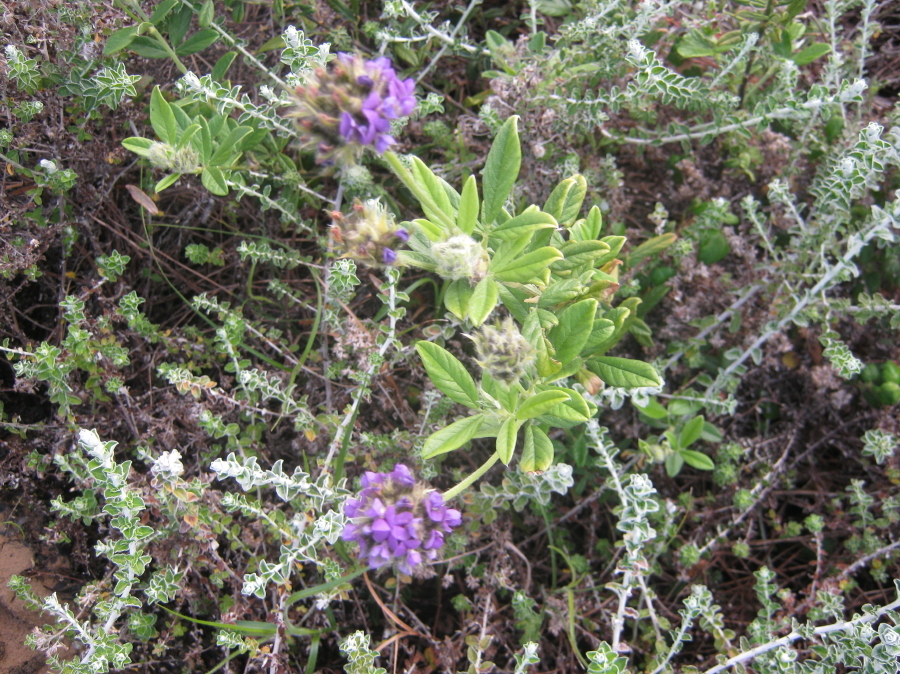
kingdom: Plantae
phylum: Tracheophyta
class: Magnoliopsida
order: Fabales
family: Fabaceae
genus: Psoralea
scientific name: Psoralea sericea
